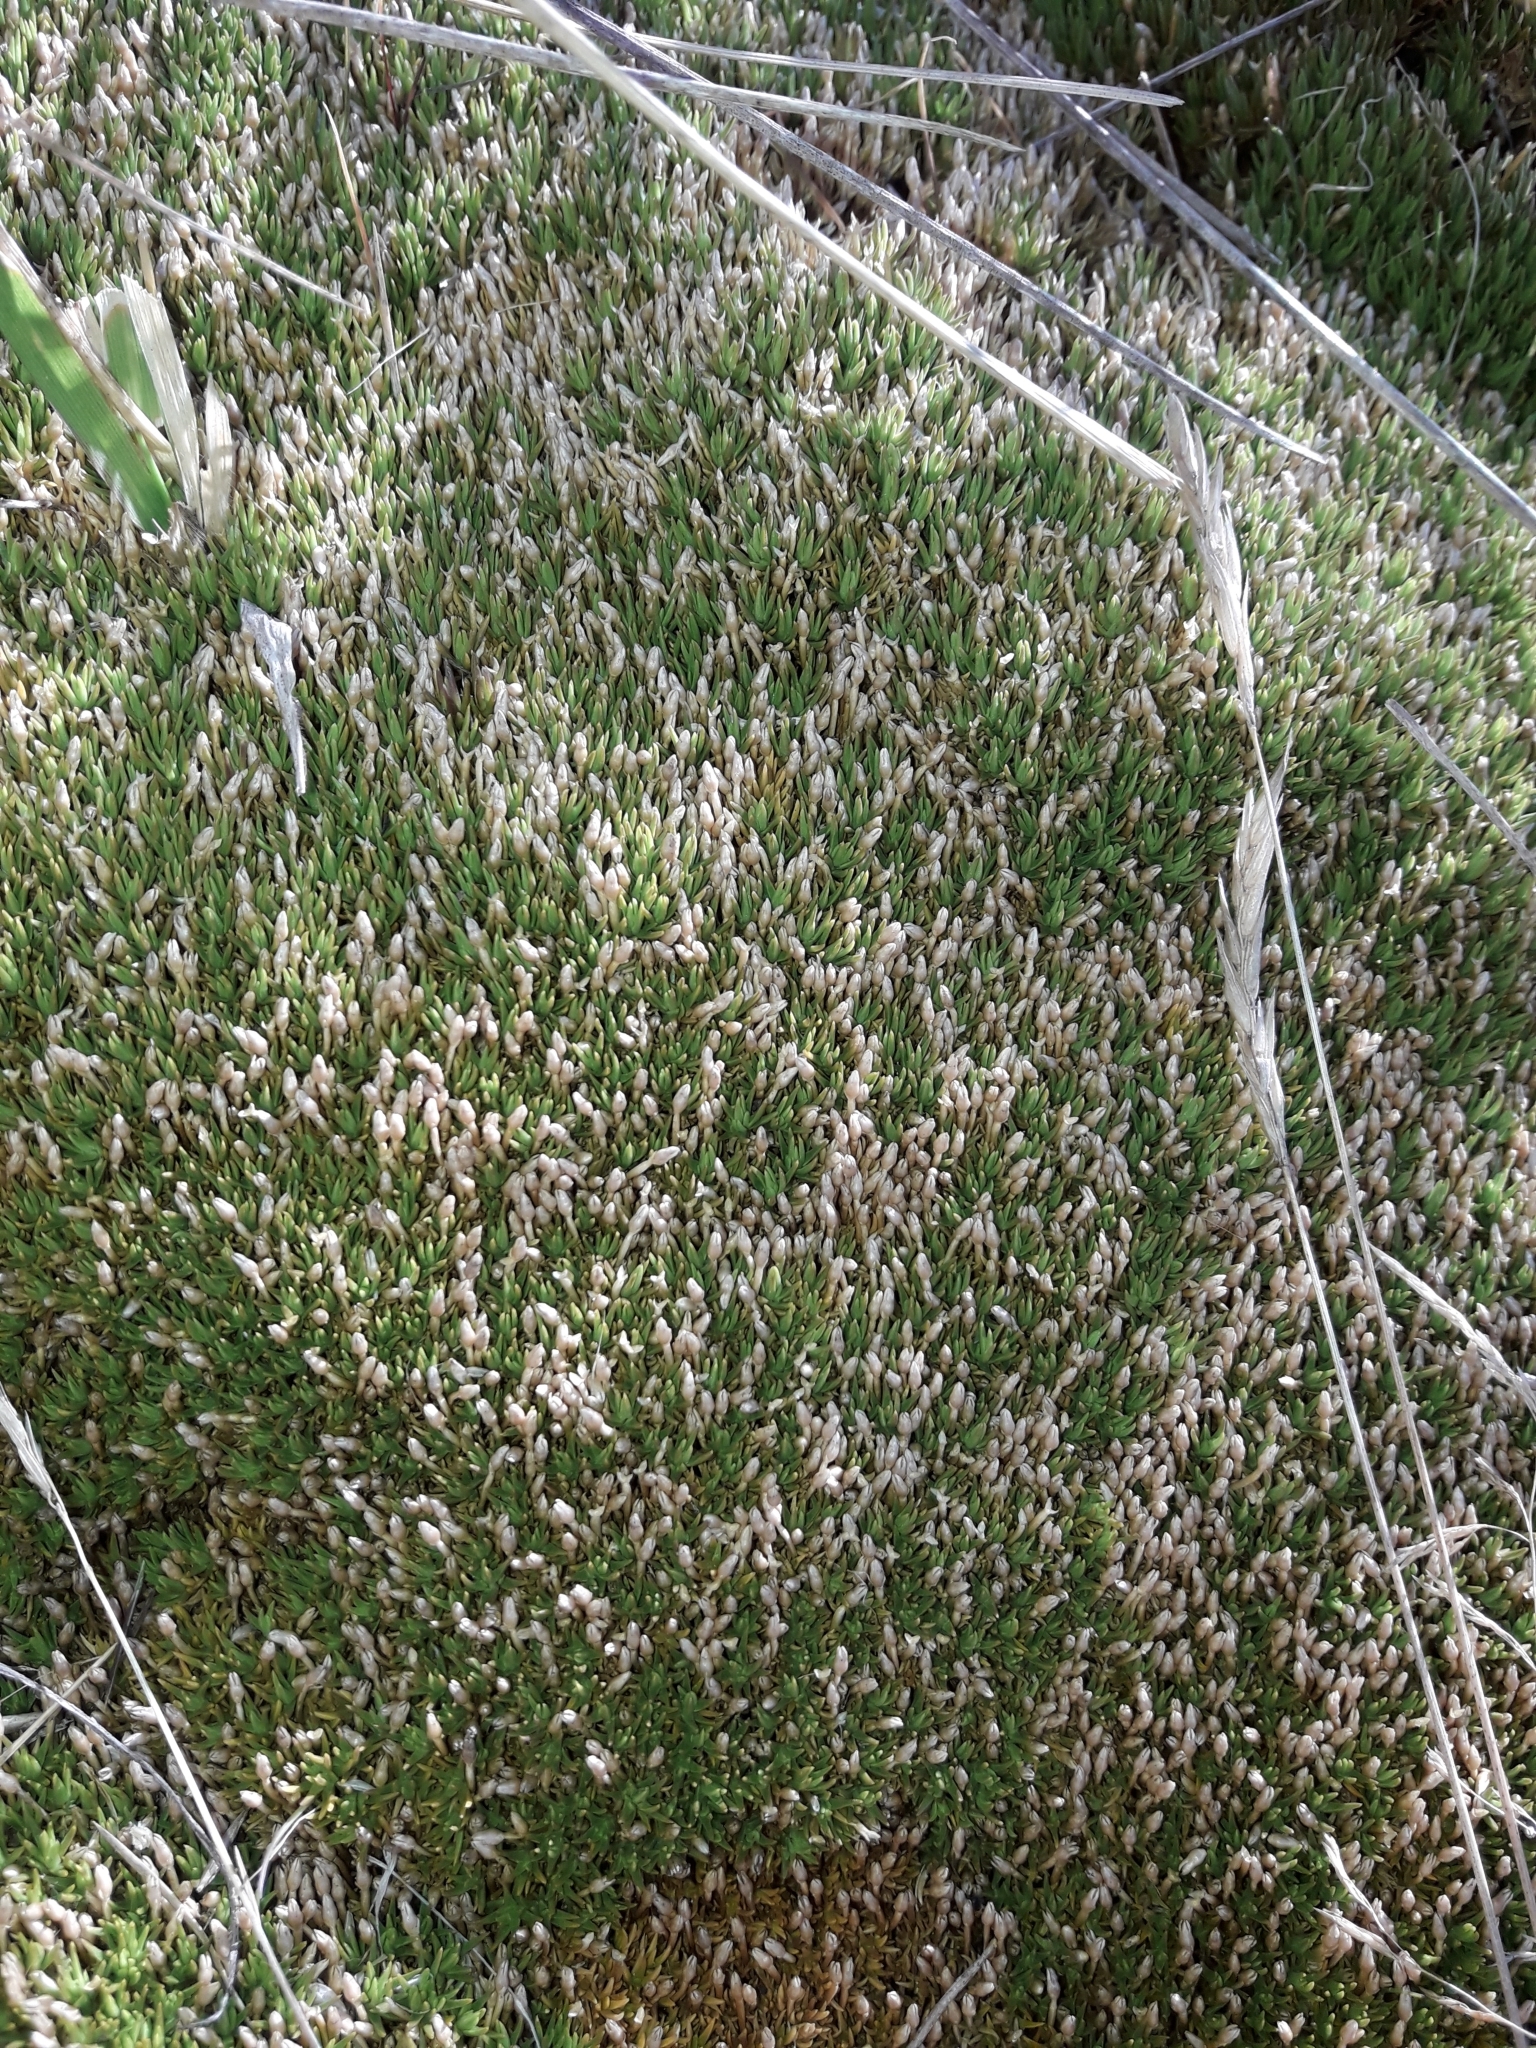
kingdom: Plantae
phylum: Tracheophyta
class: Magnoliopsida
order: Caryophyllales
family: Caryophyllaceae
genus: Scleranthus
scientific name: Scleranthus uniflorus
